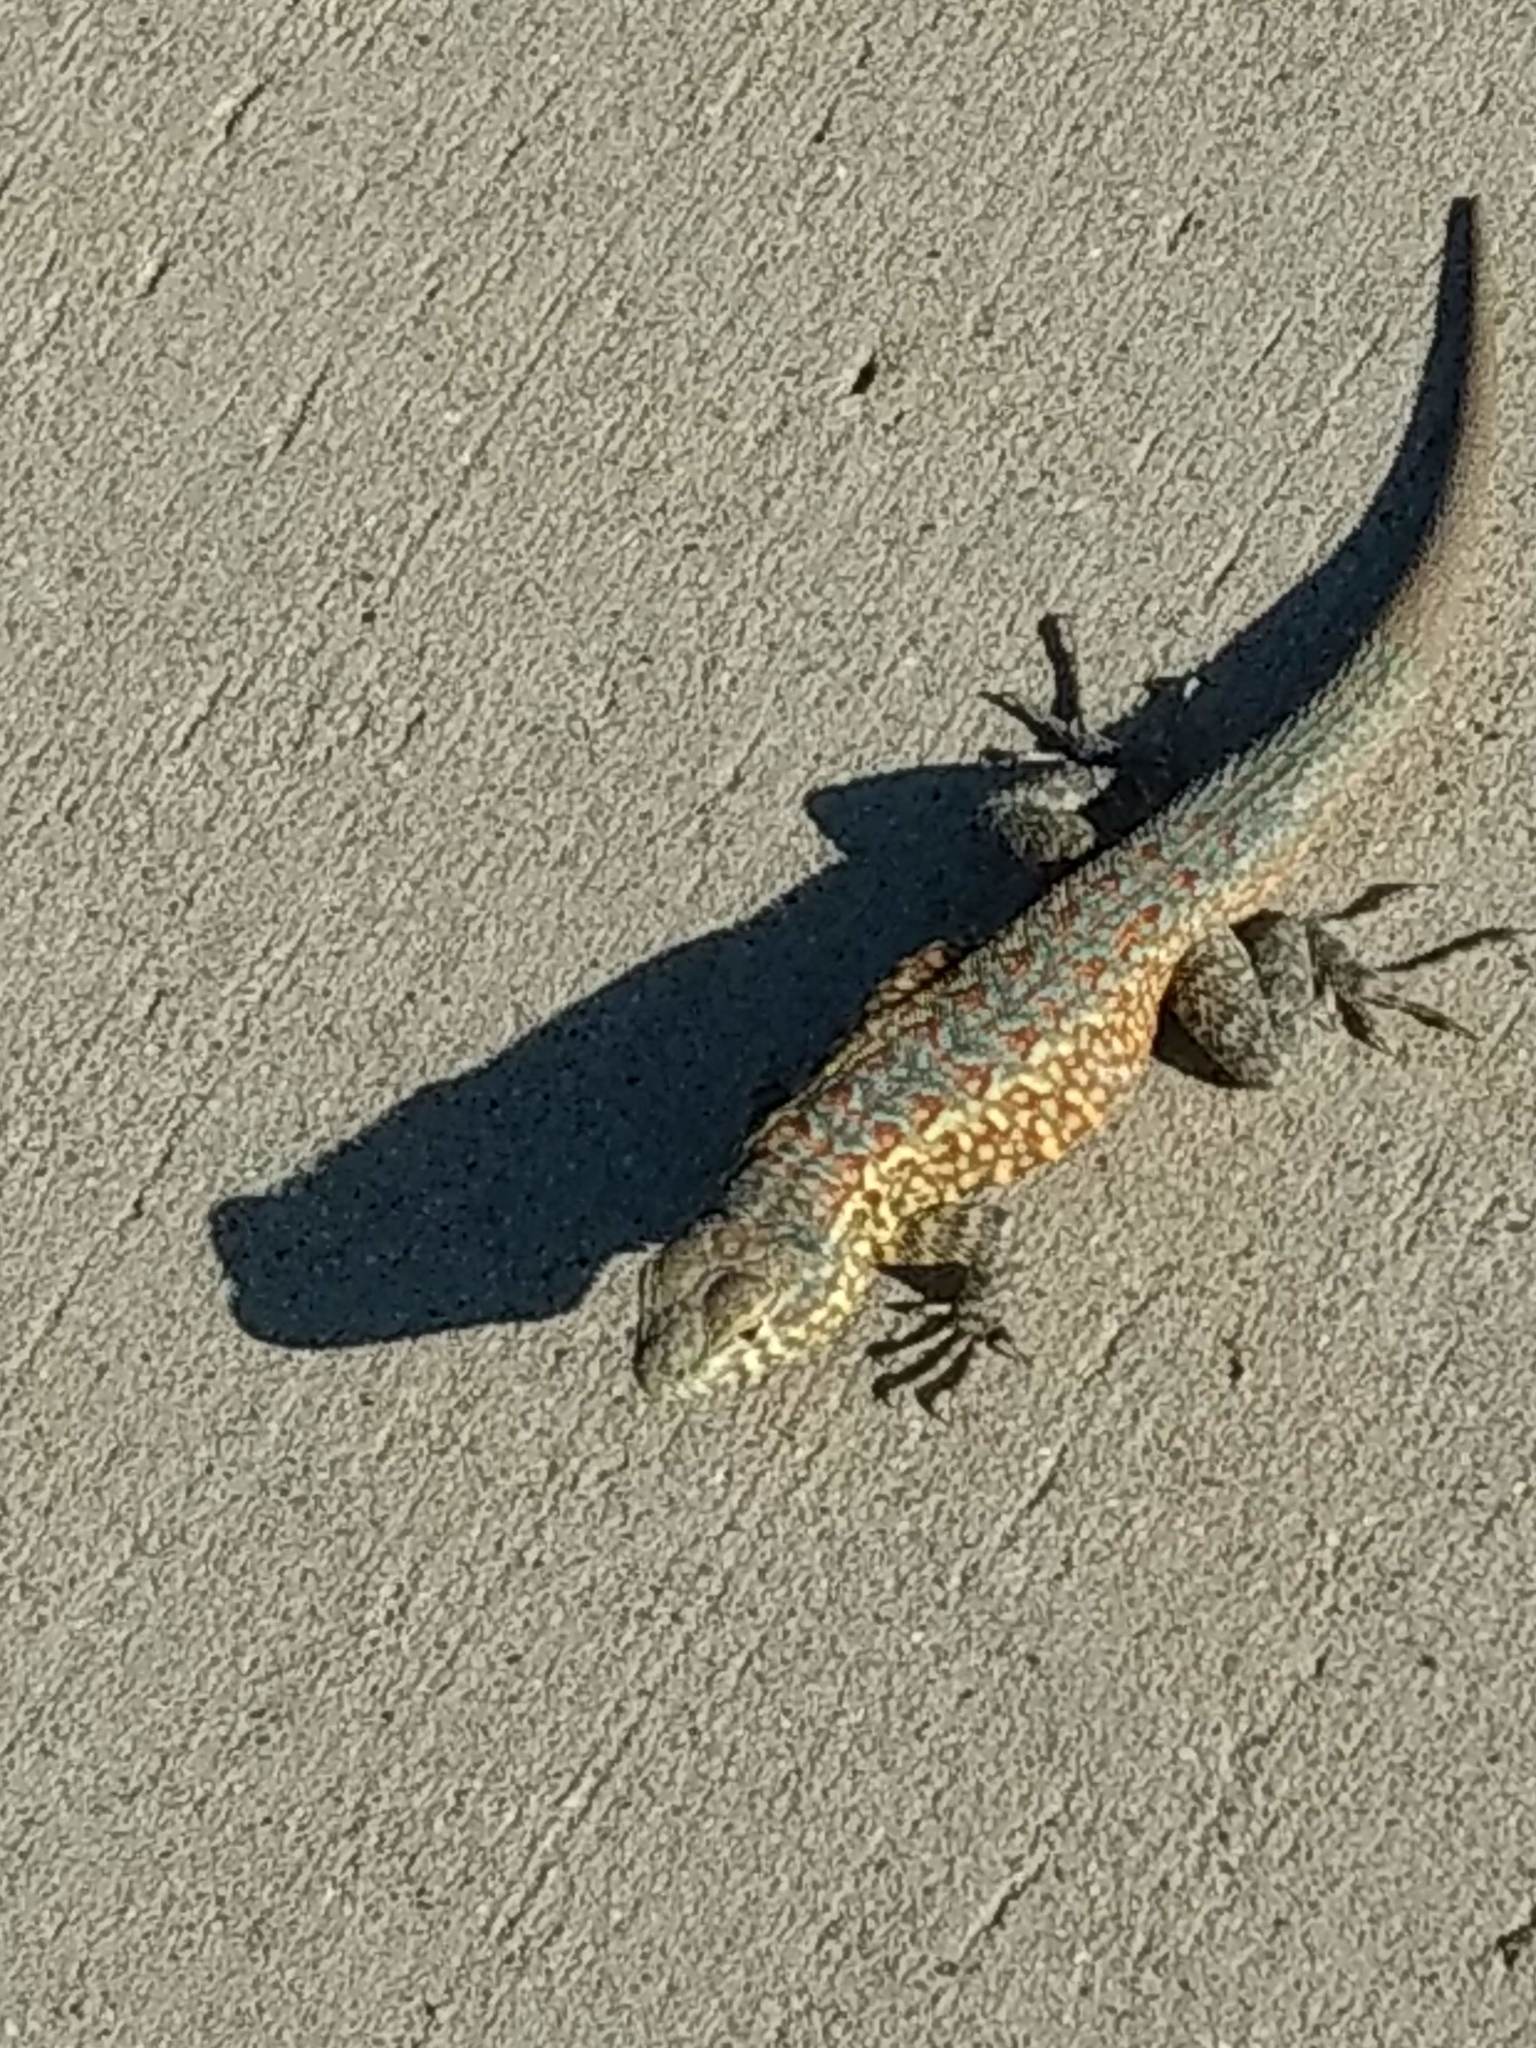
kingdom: Animalia
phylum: Chordata
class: Squamata
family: Phrynosomatidae
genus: Uta
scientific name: Uta stansburiana
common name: Side-blotched lizard
